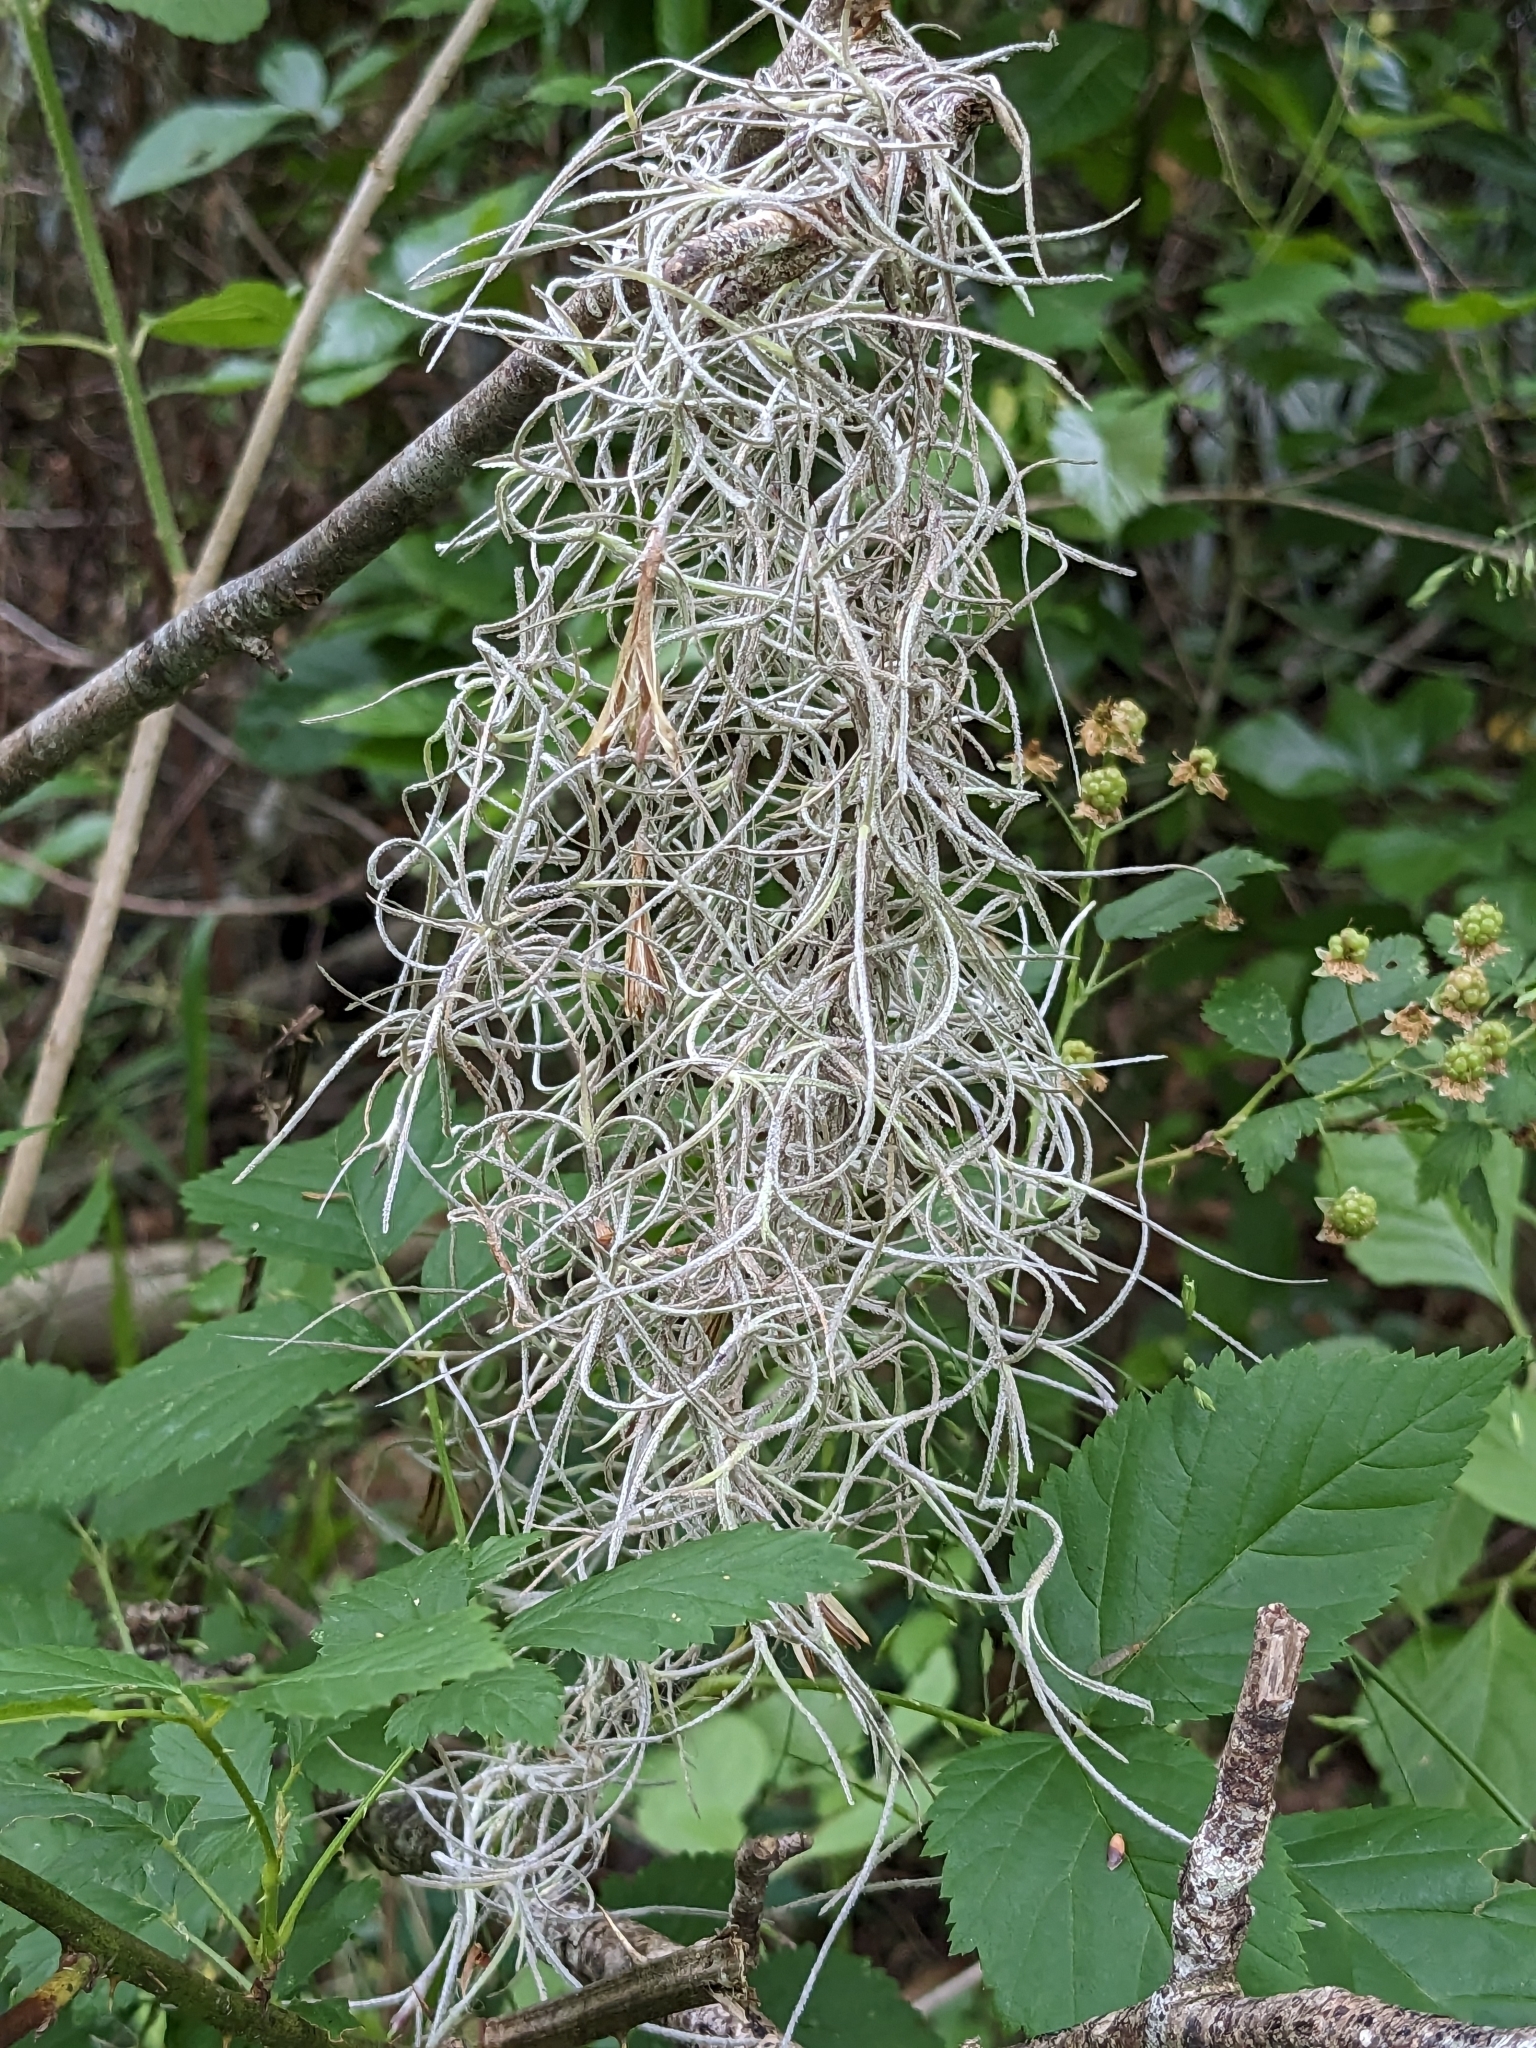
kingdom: Plantae
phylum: Tracheophyta
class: Liliopsida
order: Poales
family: Bromeliaceae
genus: Tillandsia
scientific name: Tillandsia usneoides
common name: Spanish moss
